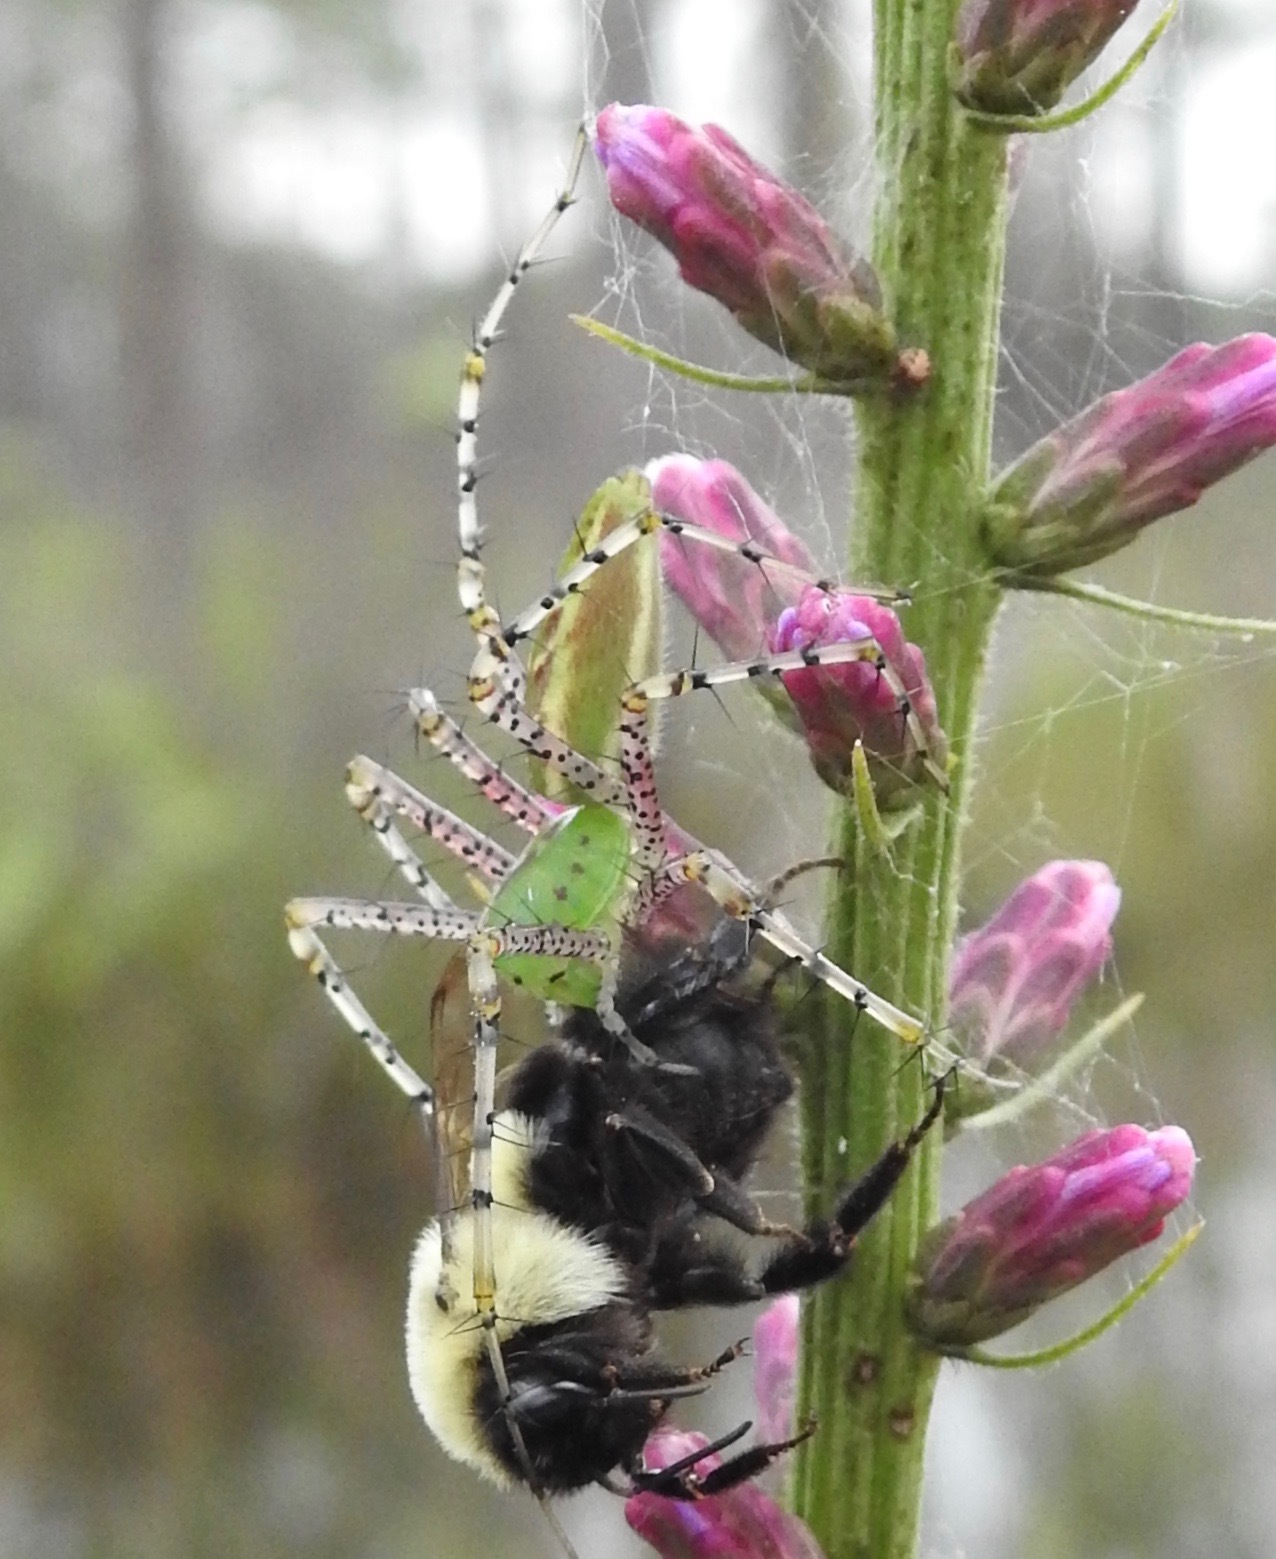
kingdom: Animalia
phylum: Arthropoda
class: Arachnida
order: Araneae
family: Oxyopidae
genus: Peucetia
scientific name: Peucetia viridans
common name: Lynx spiders
